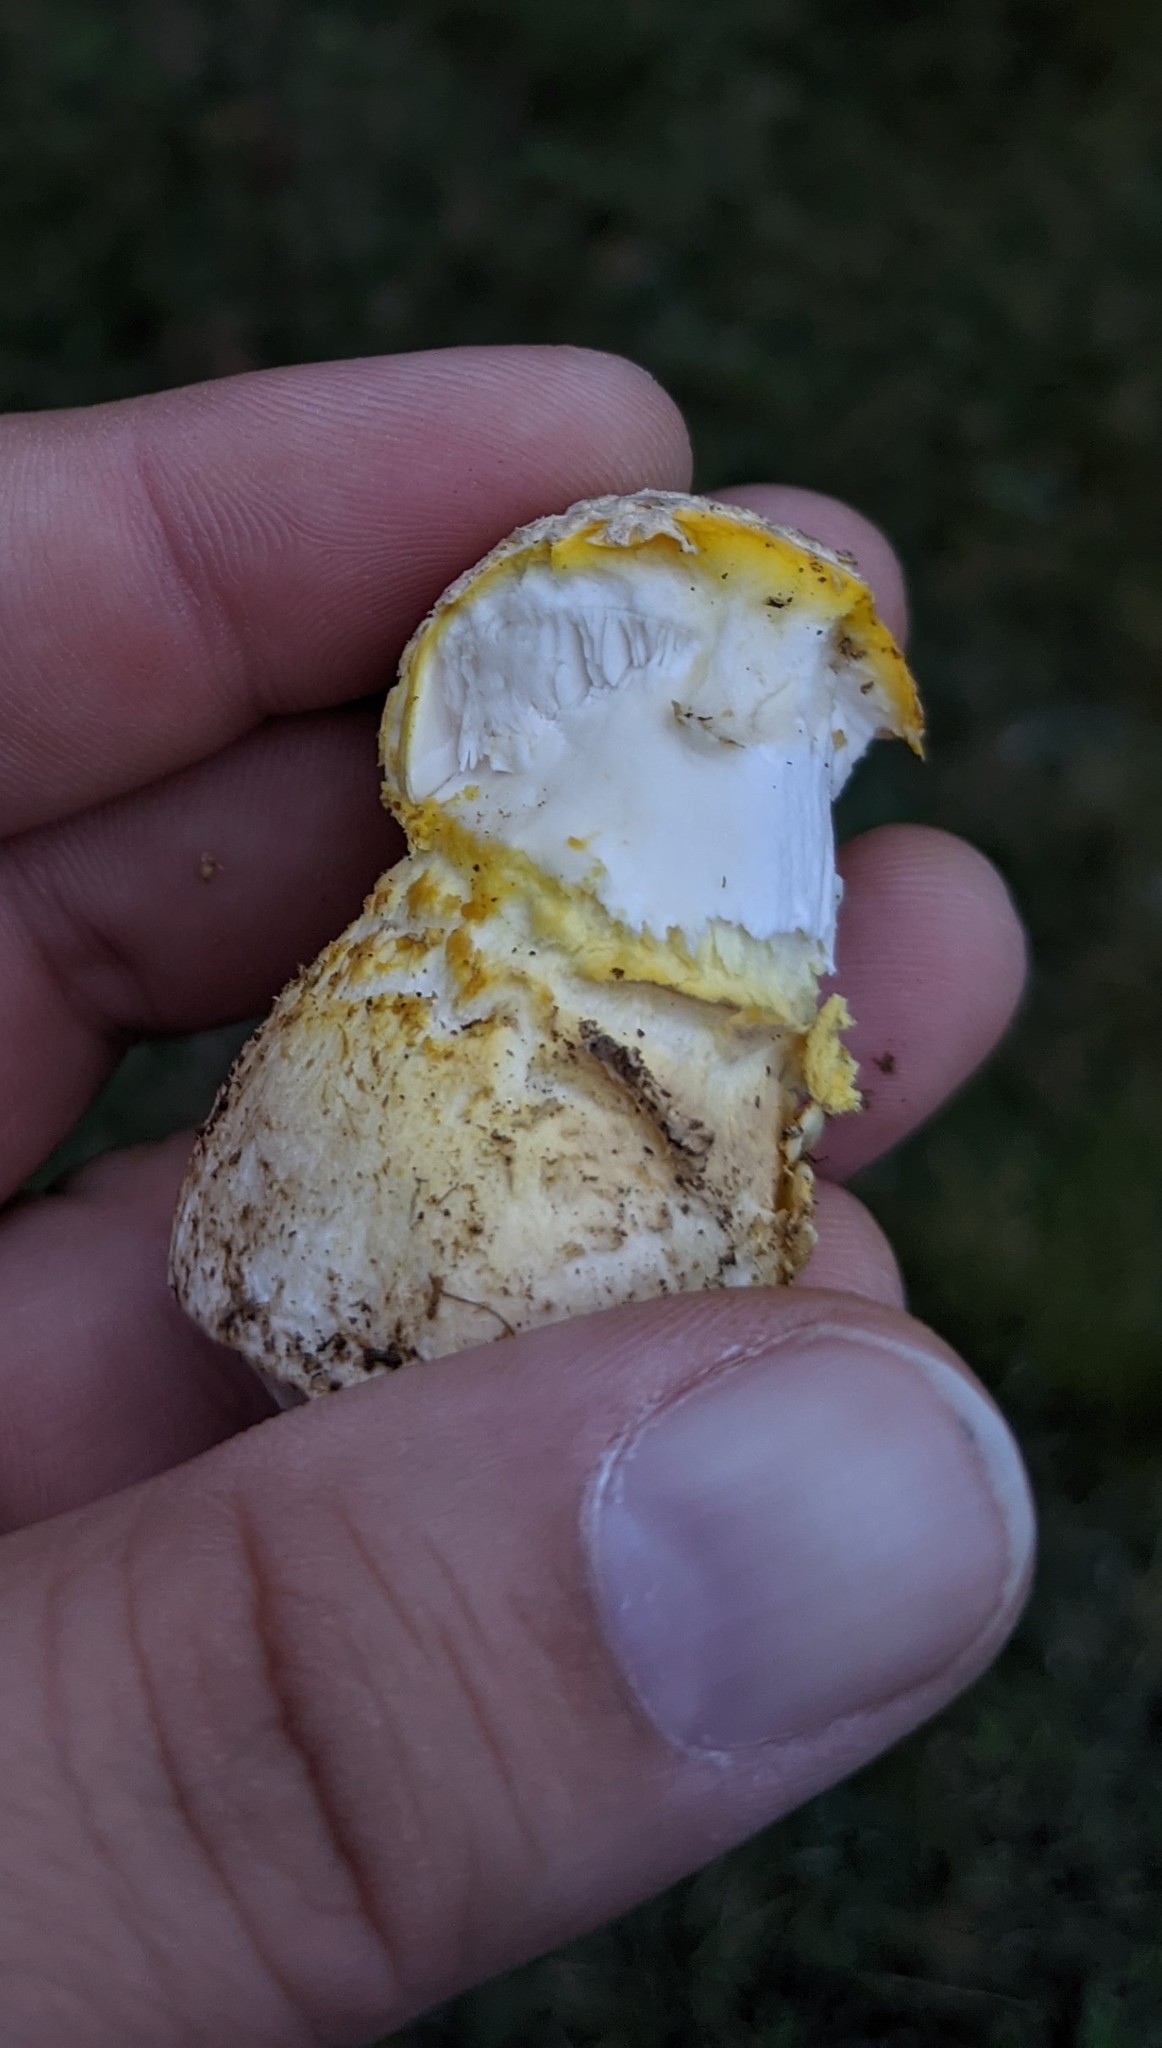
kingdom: Fungi
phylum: Basidiomycota
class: Agaricomycetes
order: Agaricales
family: Amanitaceae
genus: Amanita
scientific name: Amanita muscaria
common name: Fly agaric
